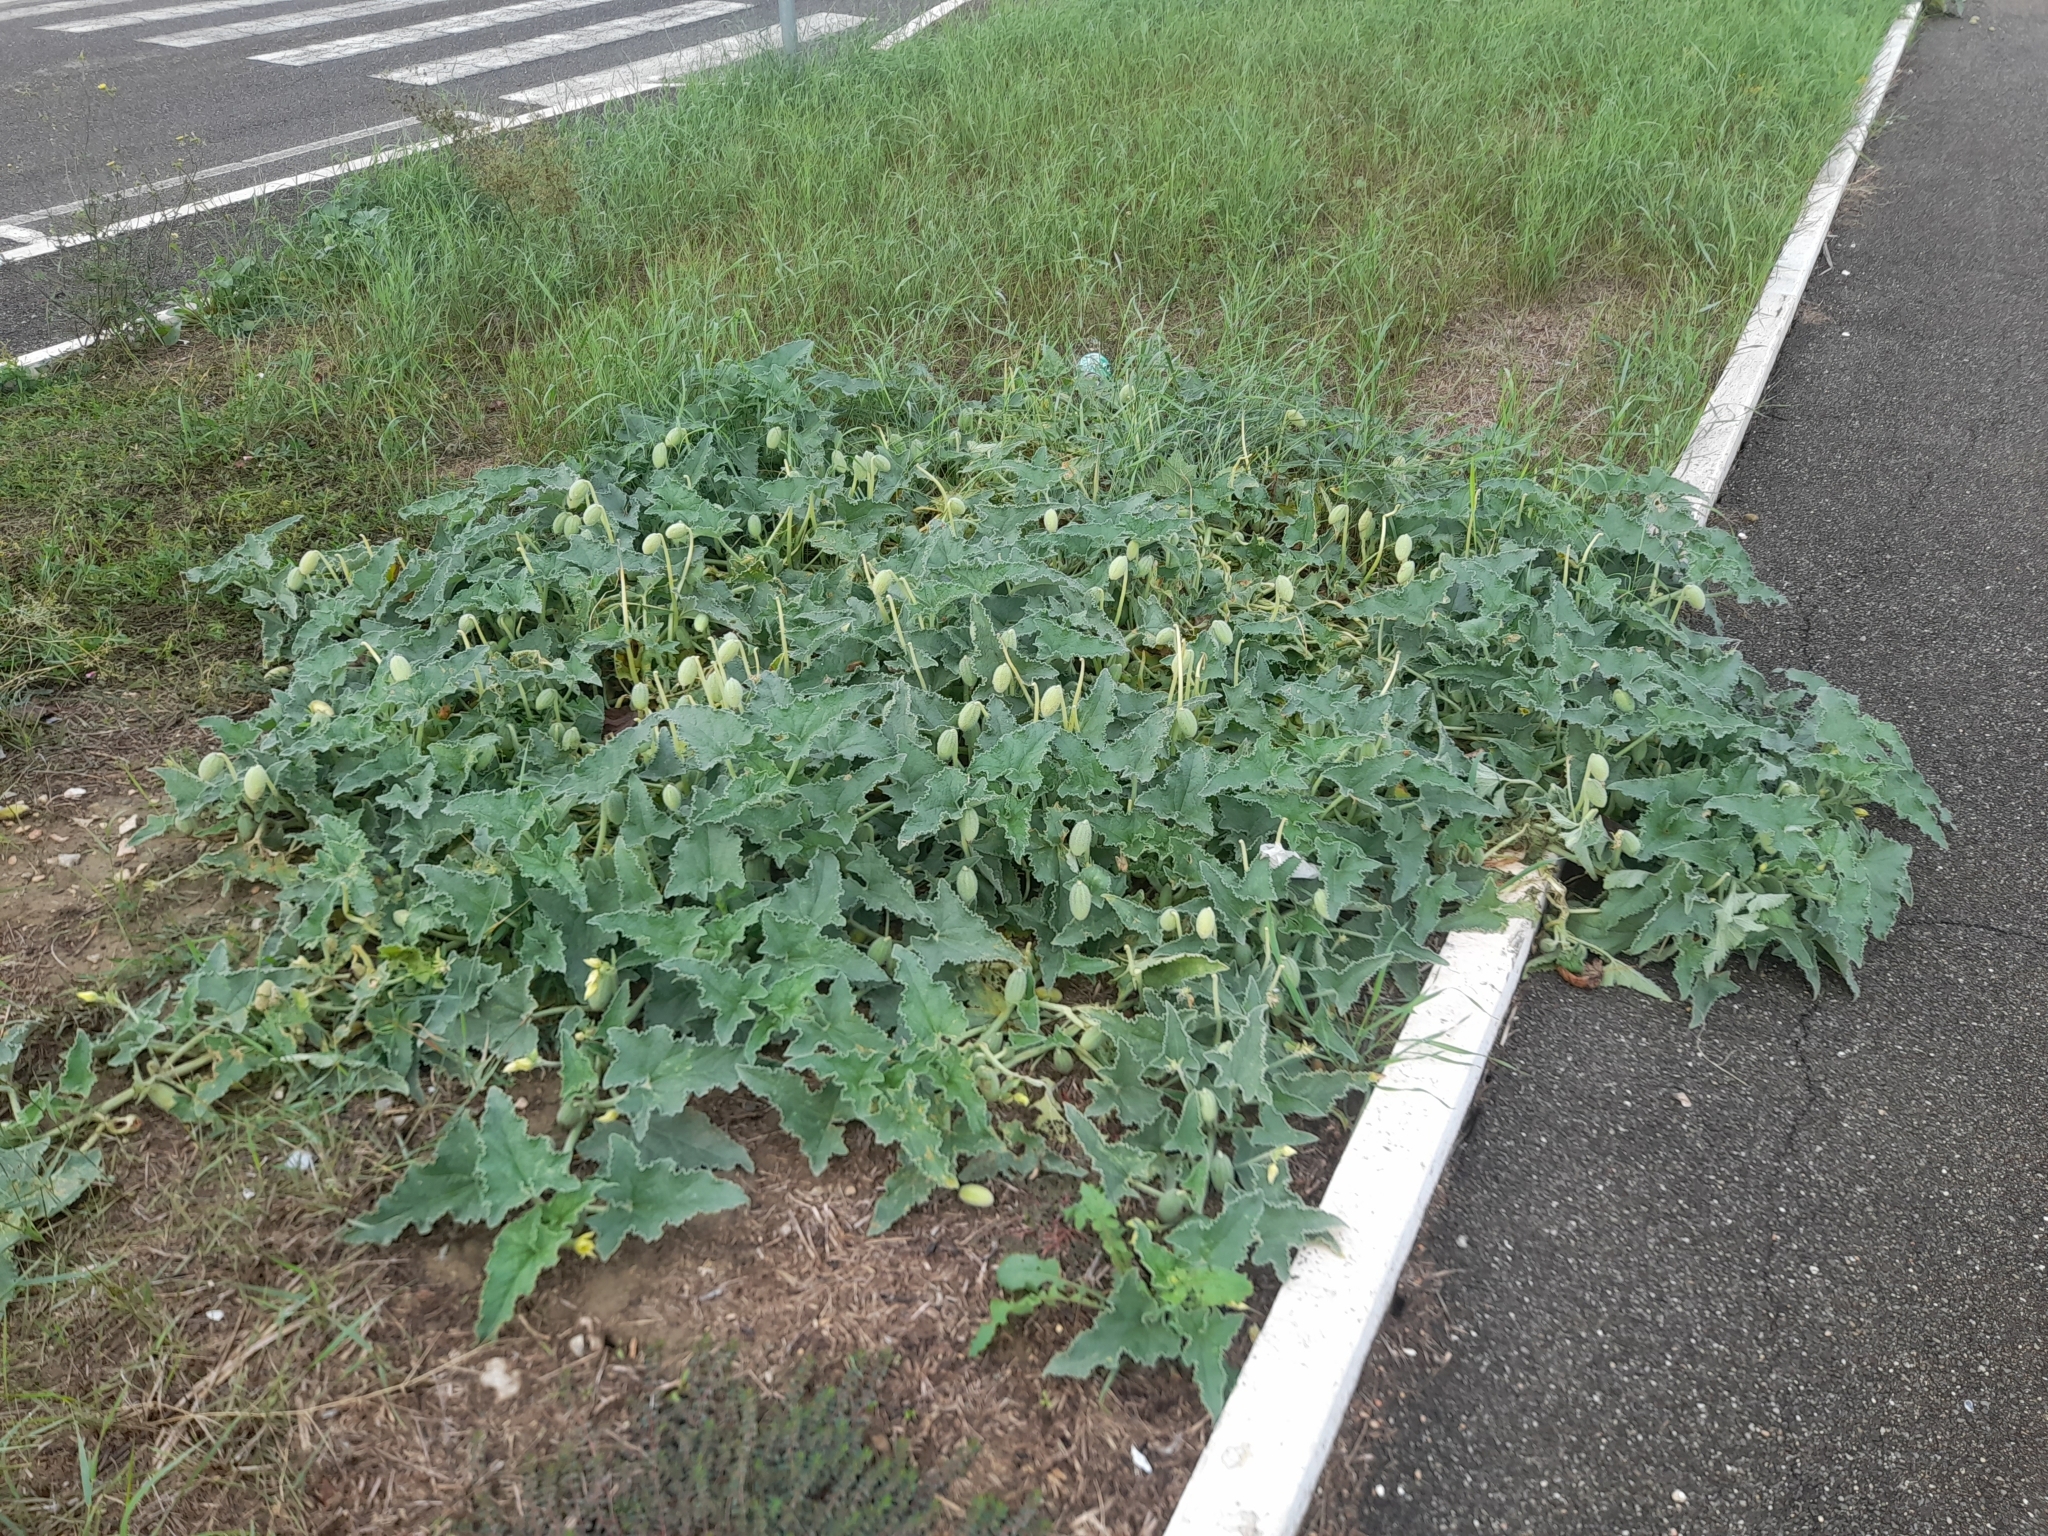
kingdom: Plantae
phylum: Tracheophyta
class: Magnoliopsida
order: Cucurbitales
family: Cucurbitaceae
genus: Ecballium
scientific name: Ecballium elaterium
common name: Squirting cucumber
